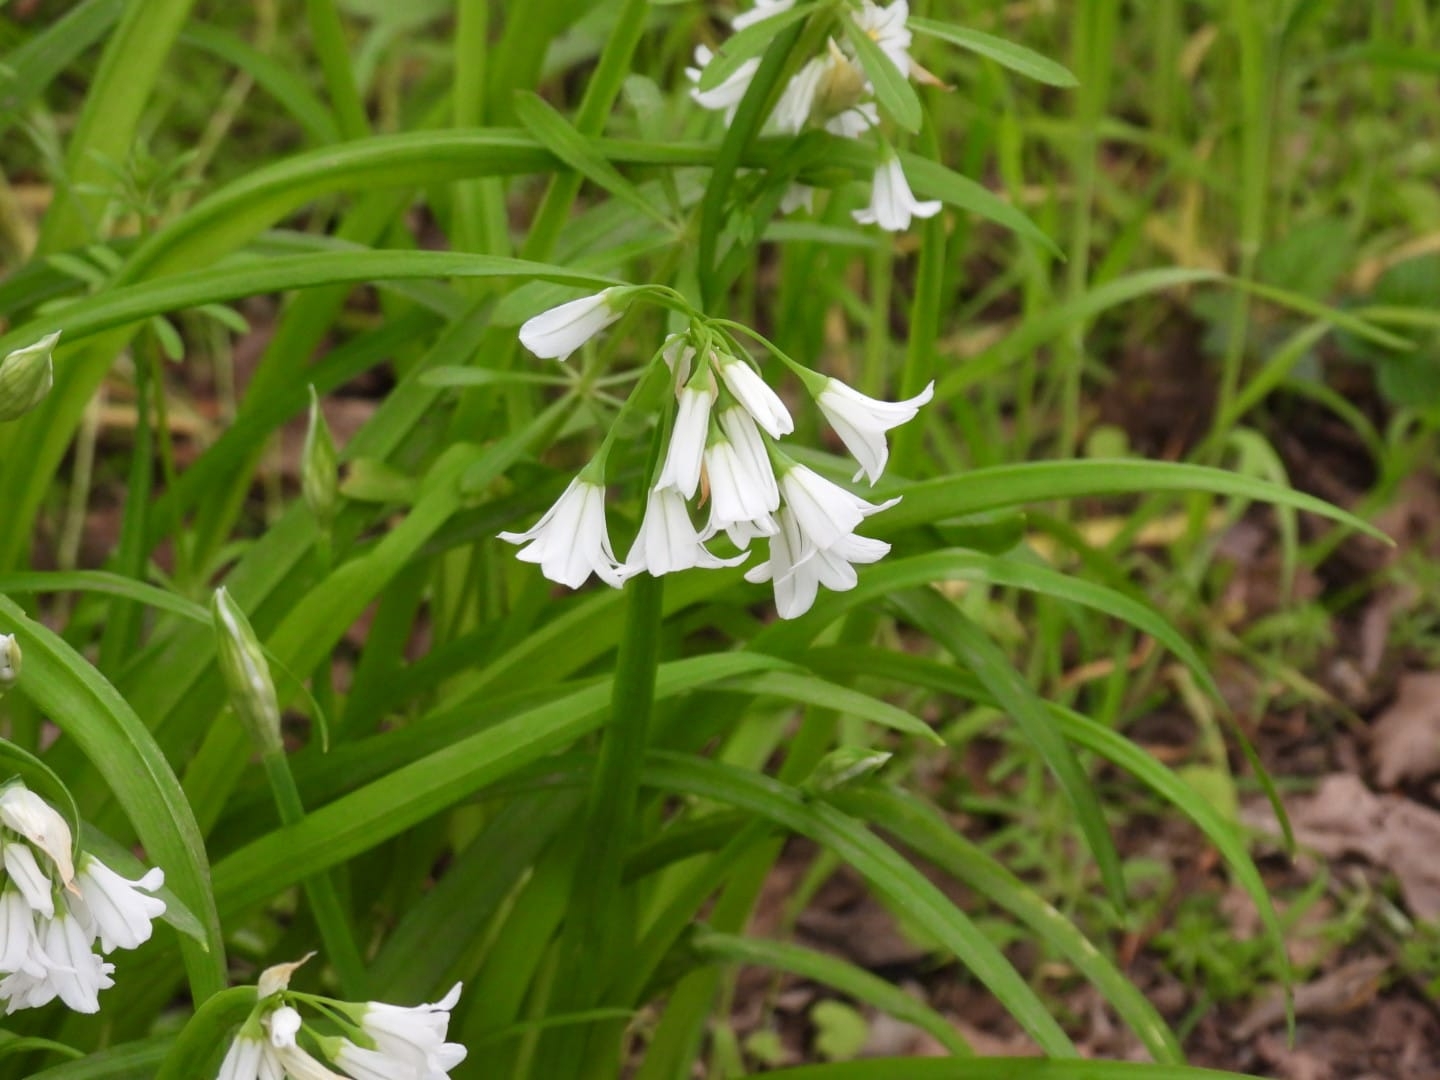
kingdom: Plantae
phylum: Tracheophyta
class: Liliopsida
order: Asparagales
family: Amaryllidaceae
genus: Allium
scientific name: Allium triquetrum
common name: Three-cornered garlic
